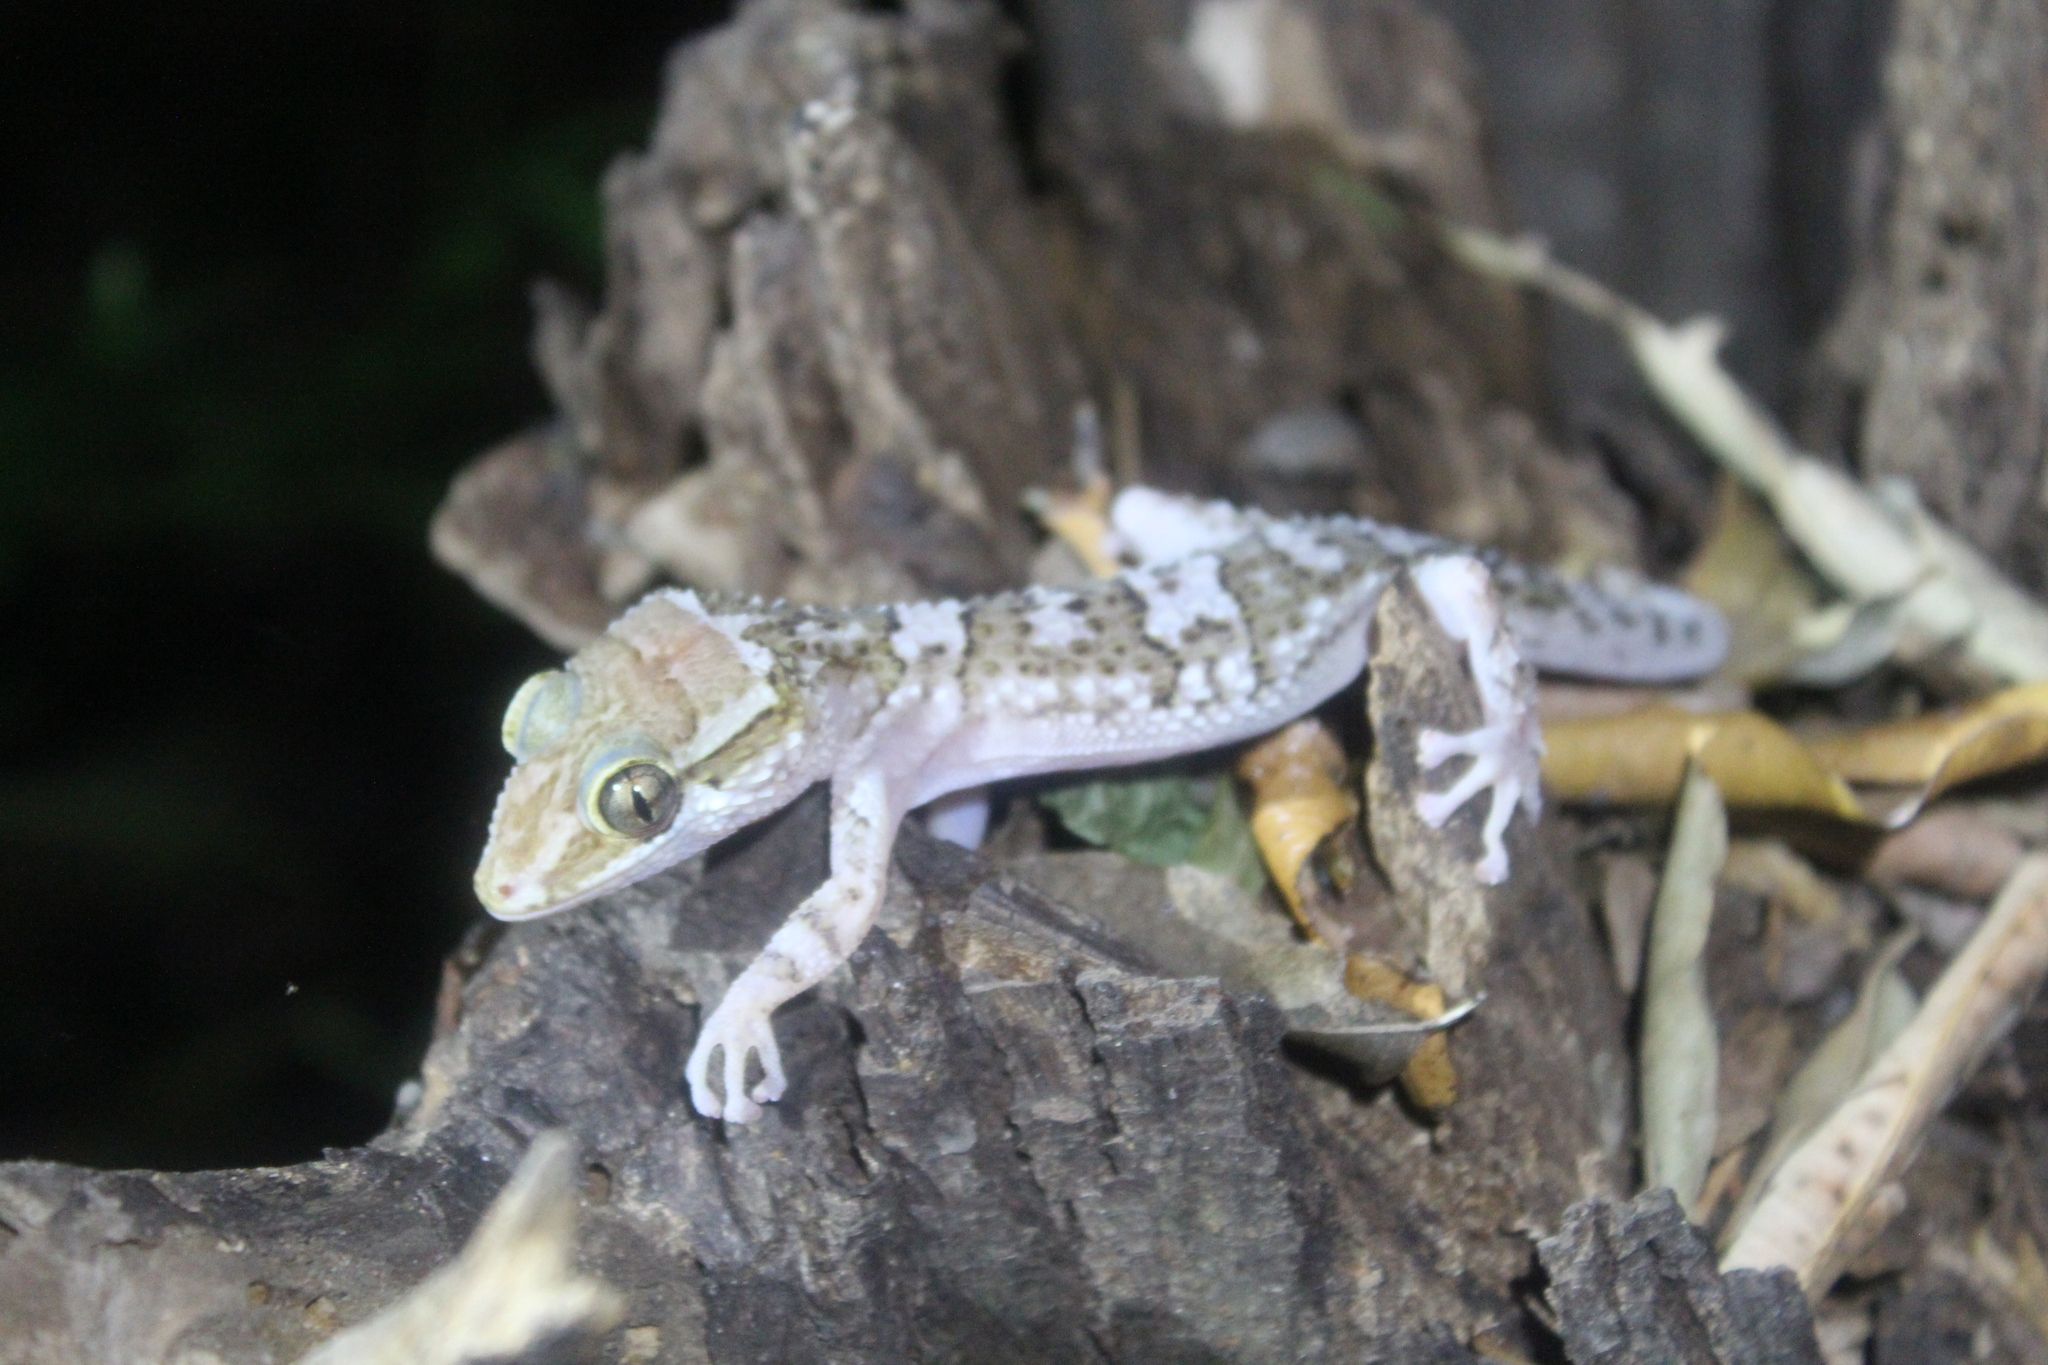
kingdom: Animalia
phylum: Chordata
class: Squamata
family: Gekkonidae
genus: Paroedura
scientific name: Paroedura rennerae
